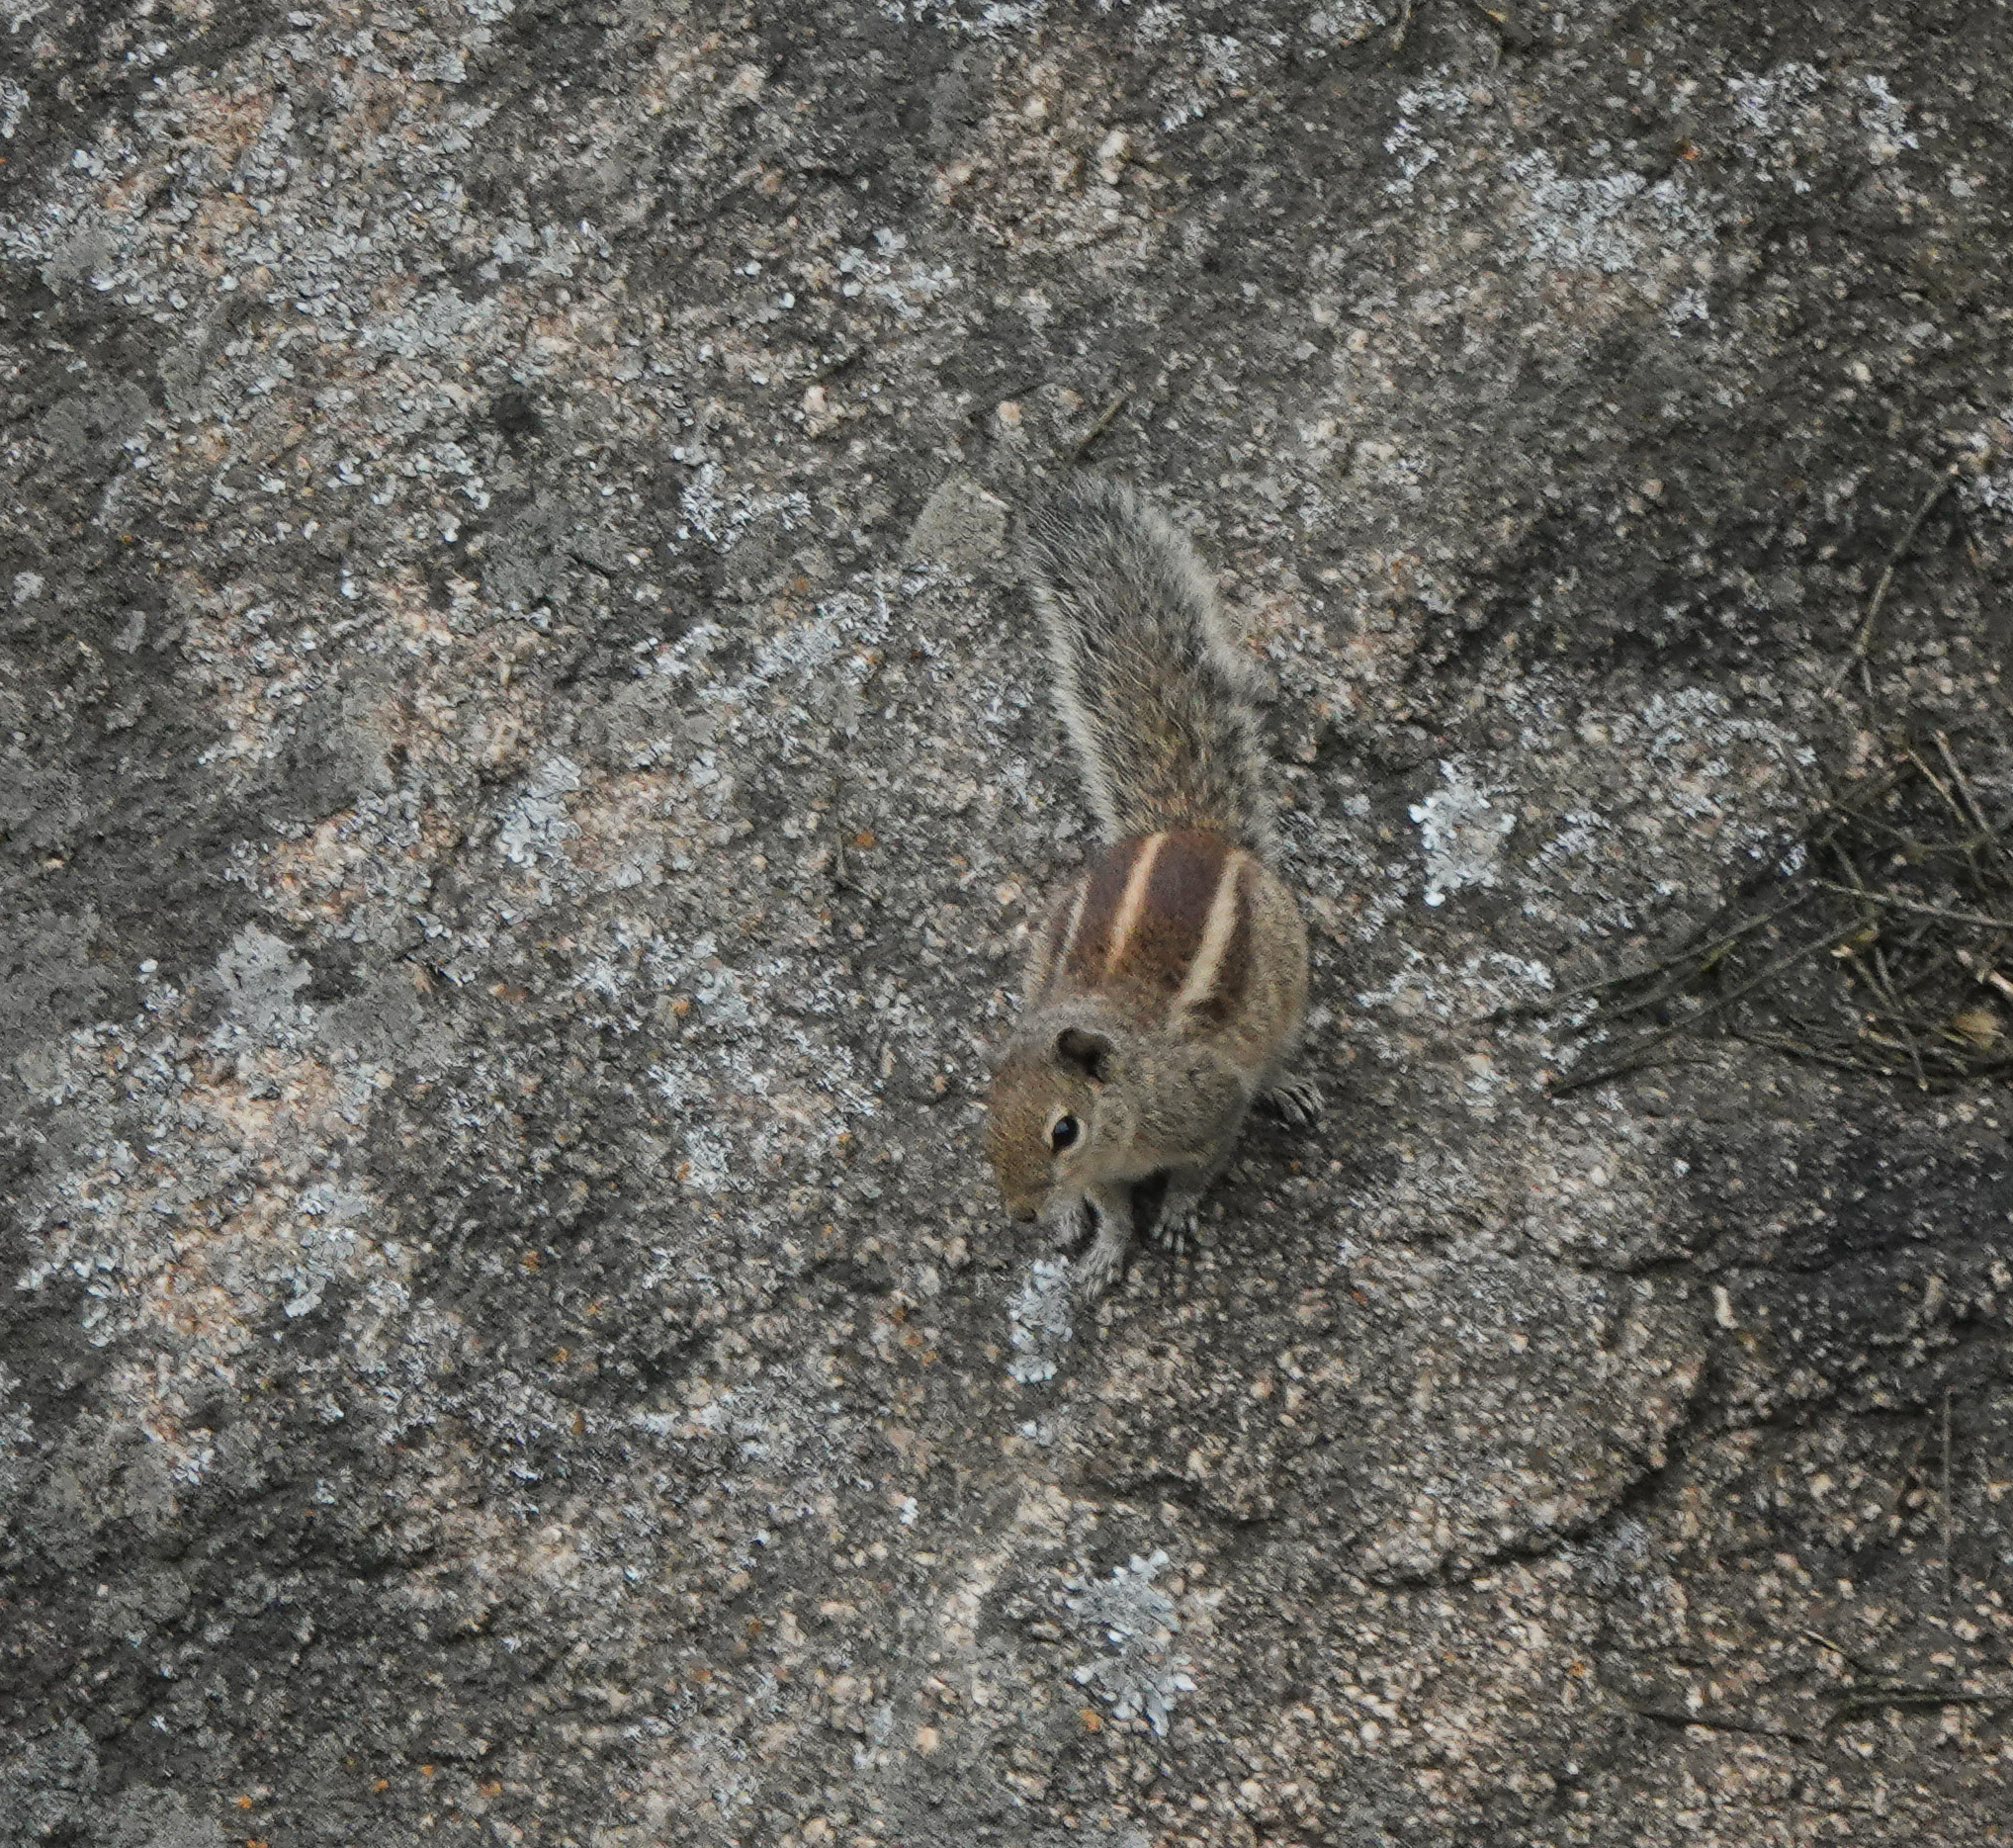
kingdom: Animalia
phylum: Chordata
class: Mammalia
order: Rodentia
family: Sciuridae
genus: Funambulus
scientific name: Funambulus palmarum
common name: Indian palm squirrel
